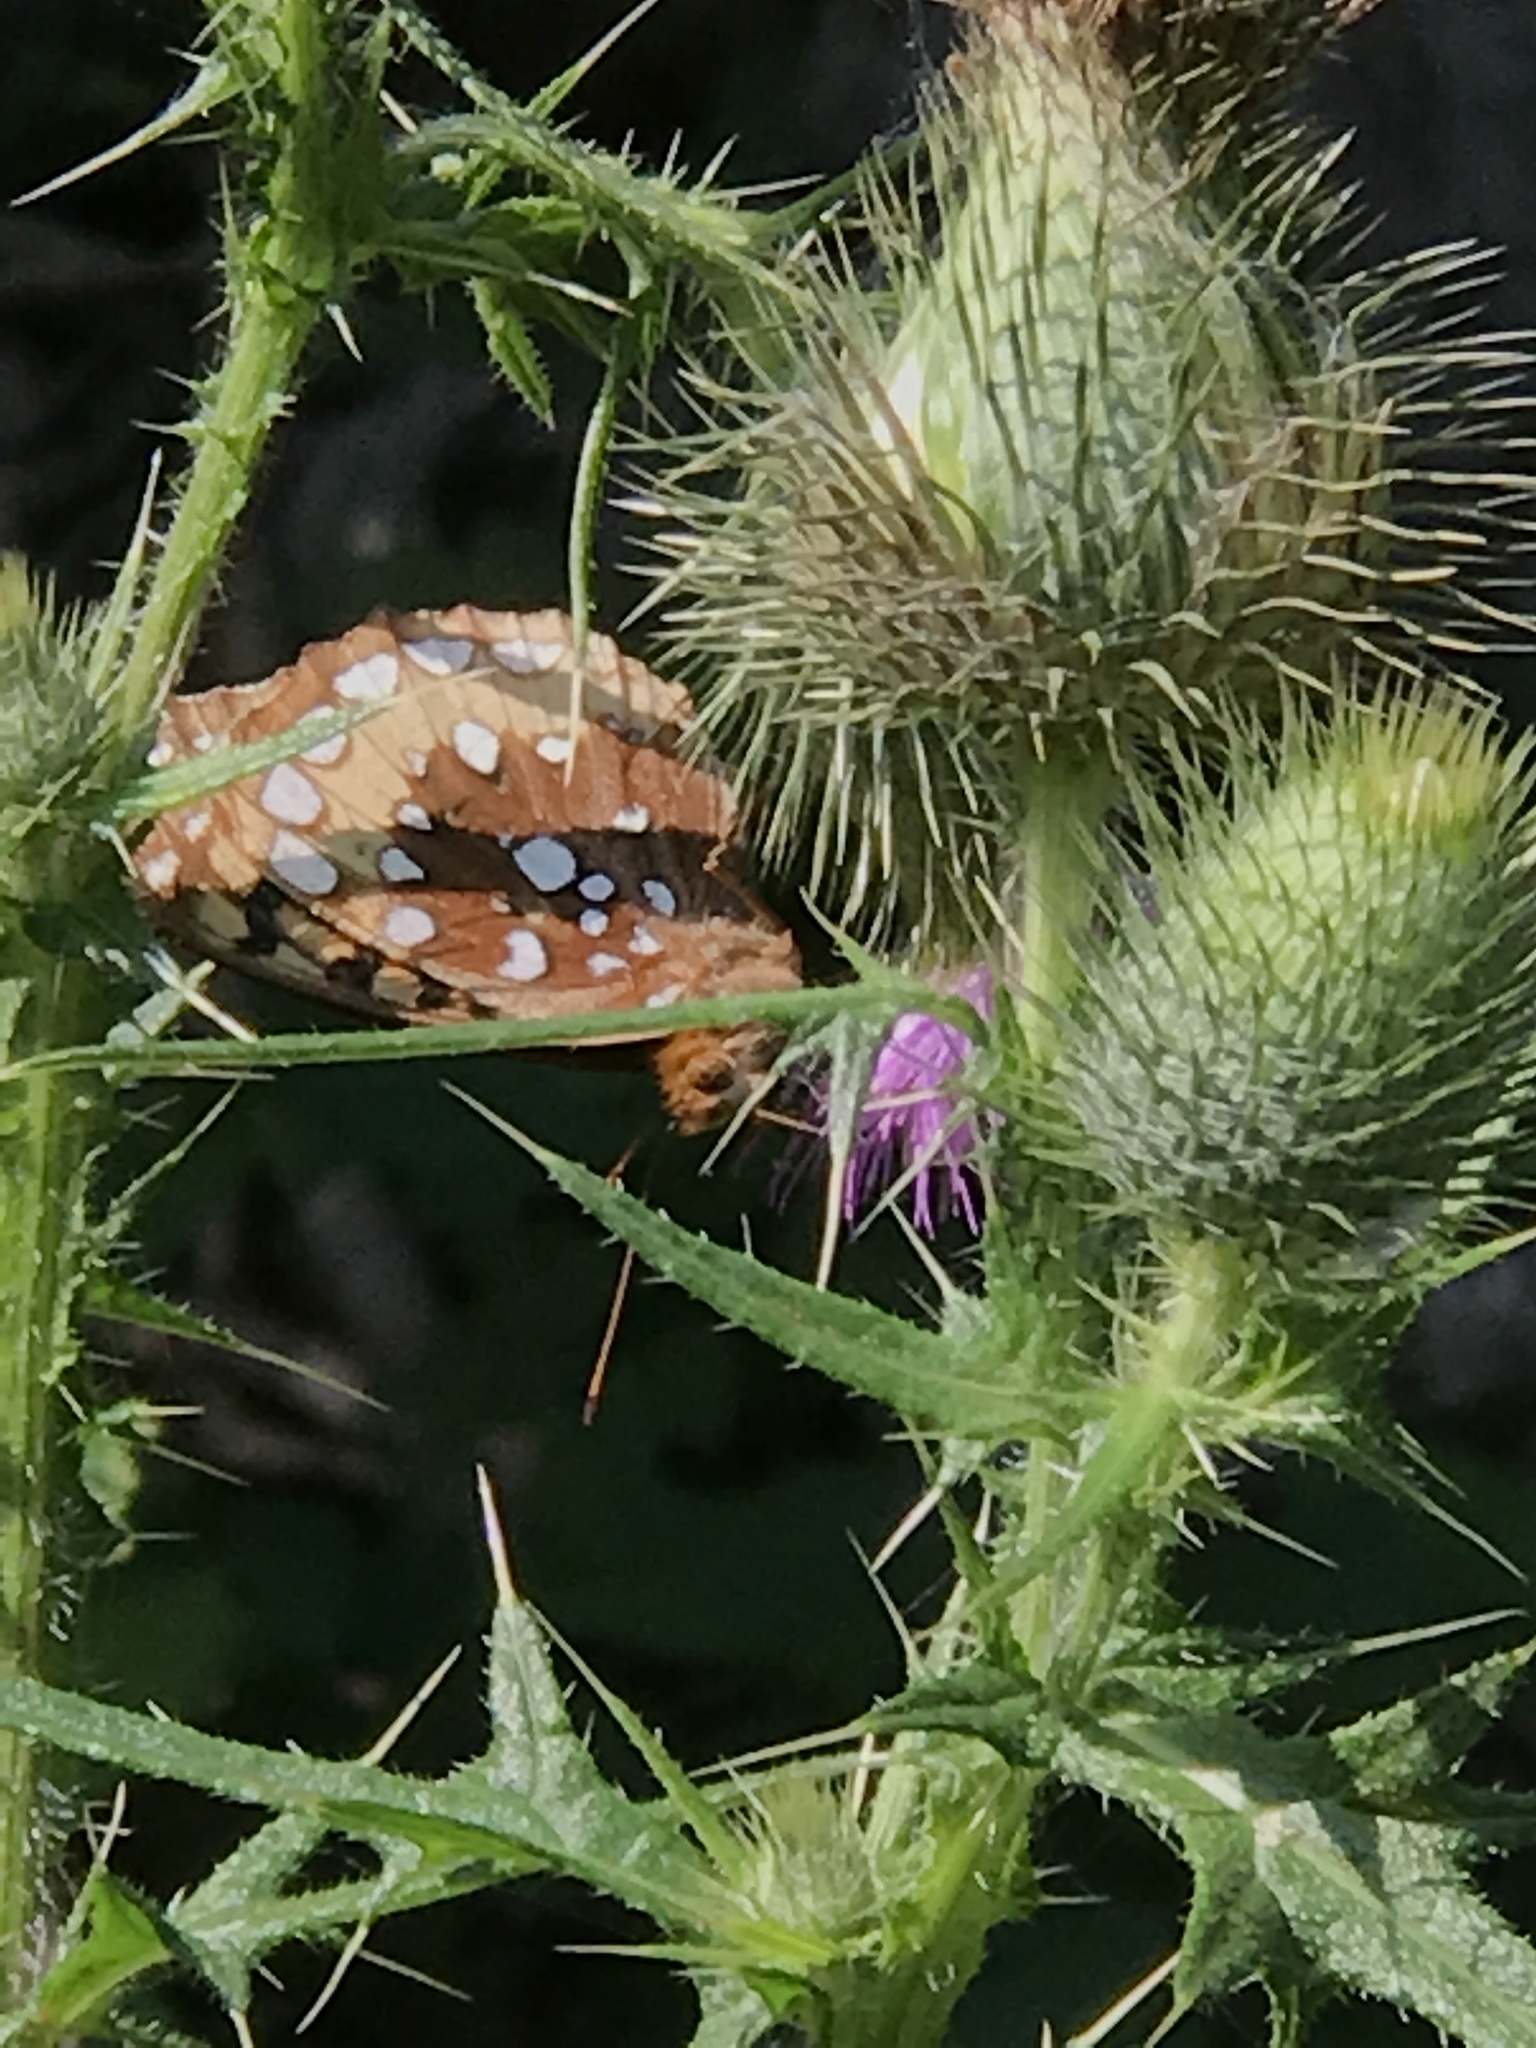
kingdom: Animalia
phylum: Arthropoda
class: Insecta
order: Lepidoptera
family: Nymphalidae
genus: Speyeria
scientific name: Speyeria cybele
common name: Great spangled fritillary
